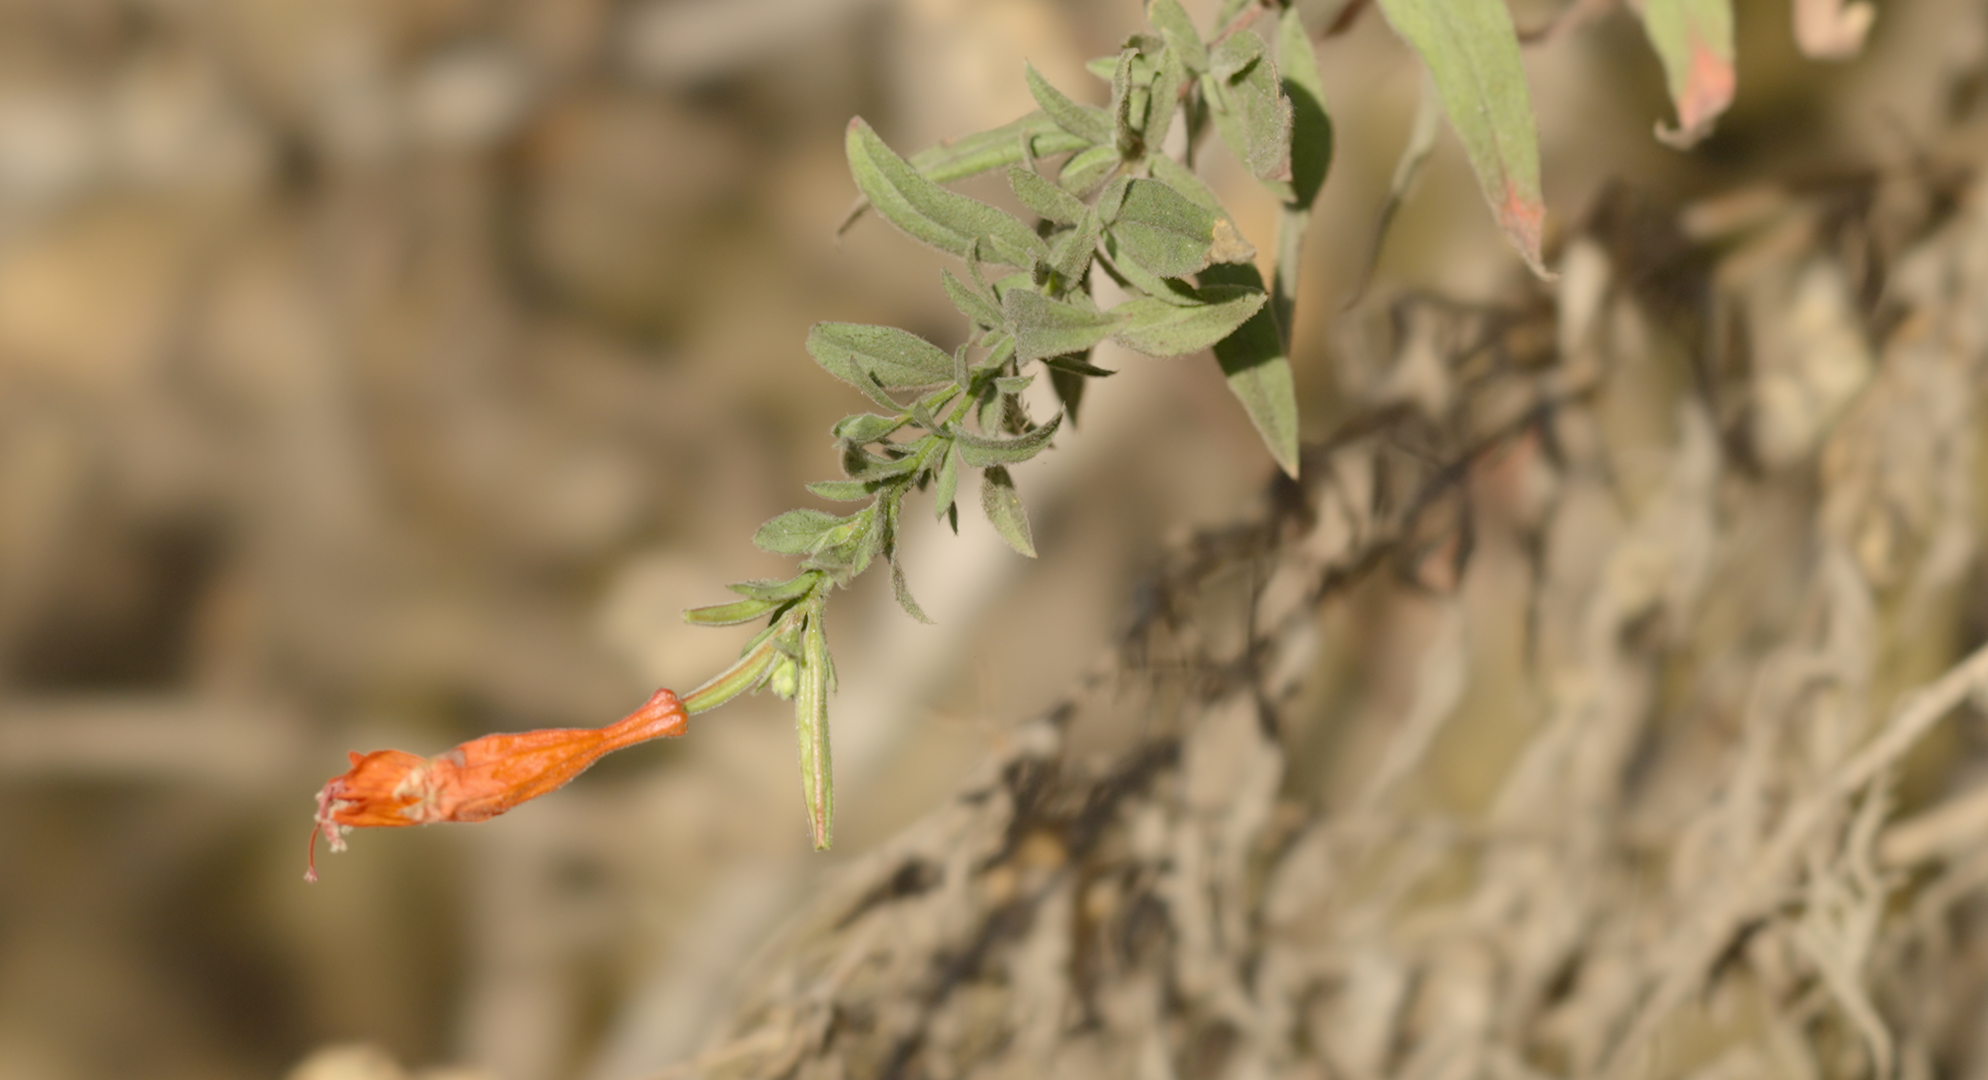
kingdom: Plantae
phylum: Tracheophyta
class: Magnoliopsida
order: Myrtales
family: Onagraceae
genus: Epilobium
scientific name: Epilobium canum
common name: California-fuchsia
